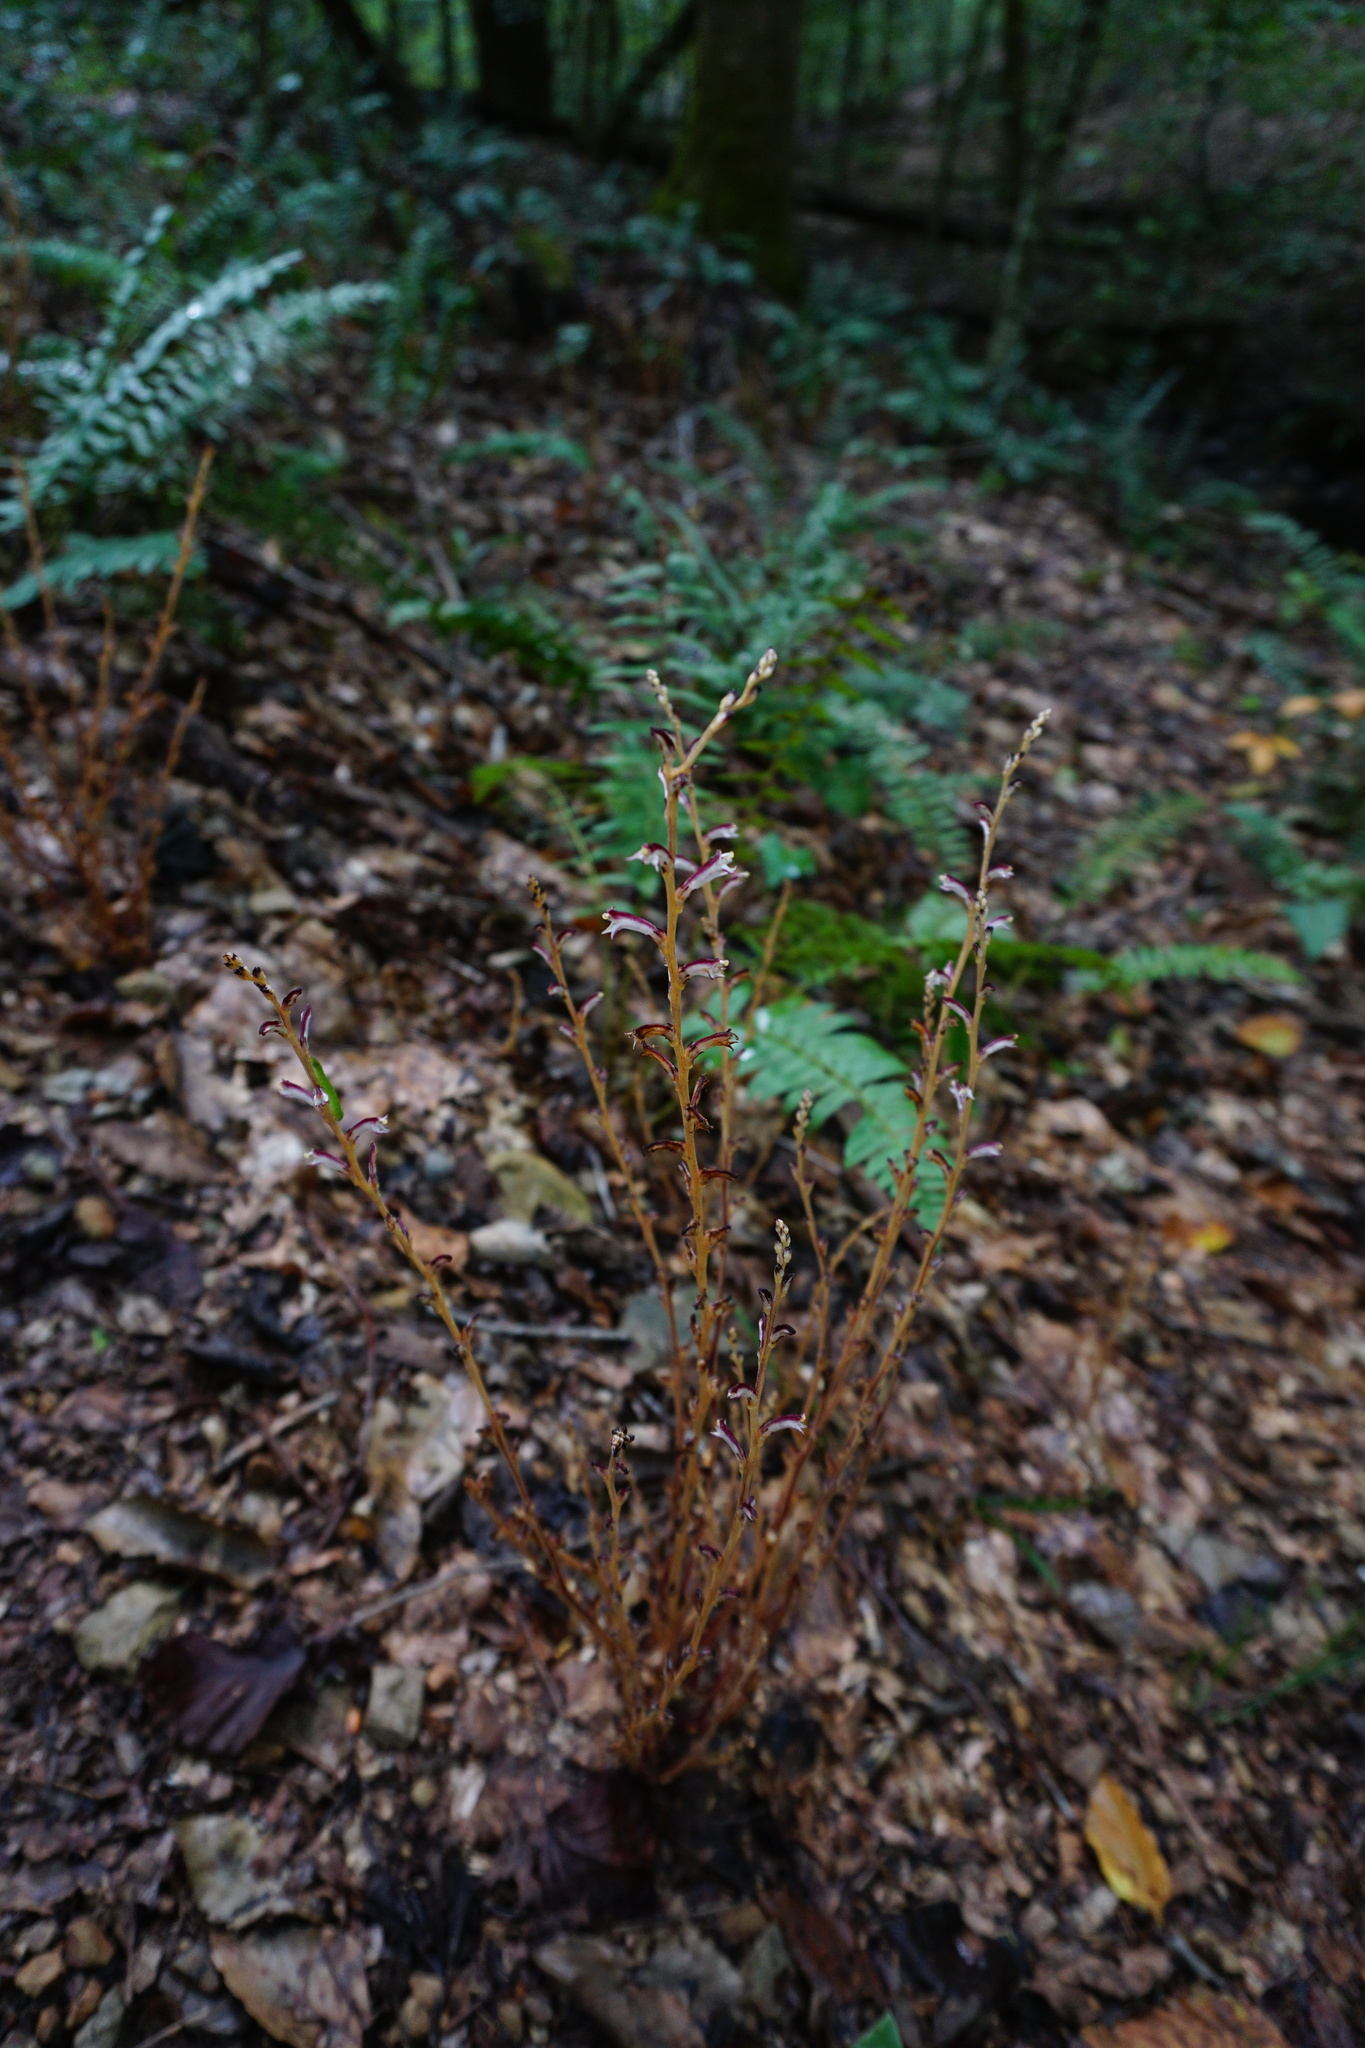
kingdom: Plantae
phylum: Tracheophyta
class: Magnoliopsida
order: Lamiales
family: Orobanchaceae
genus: Epifagus
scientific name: Epifagus virginiana
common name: Beechdrops
